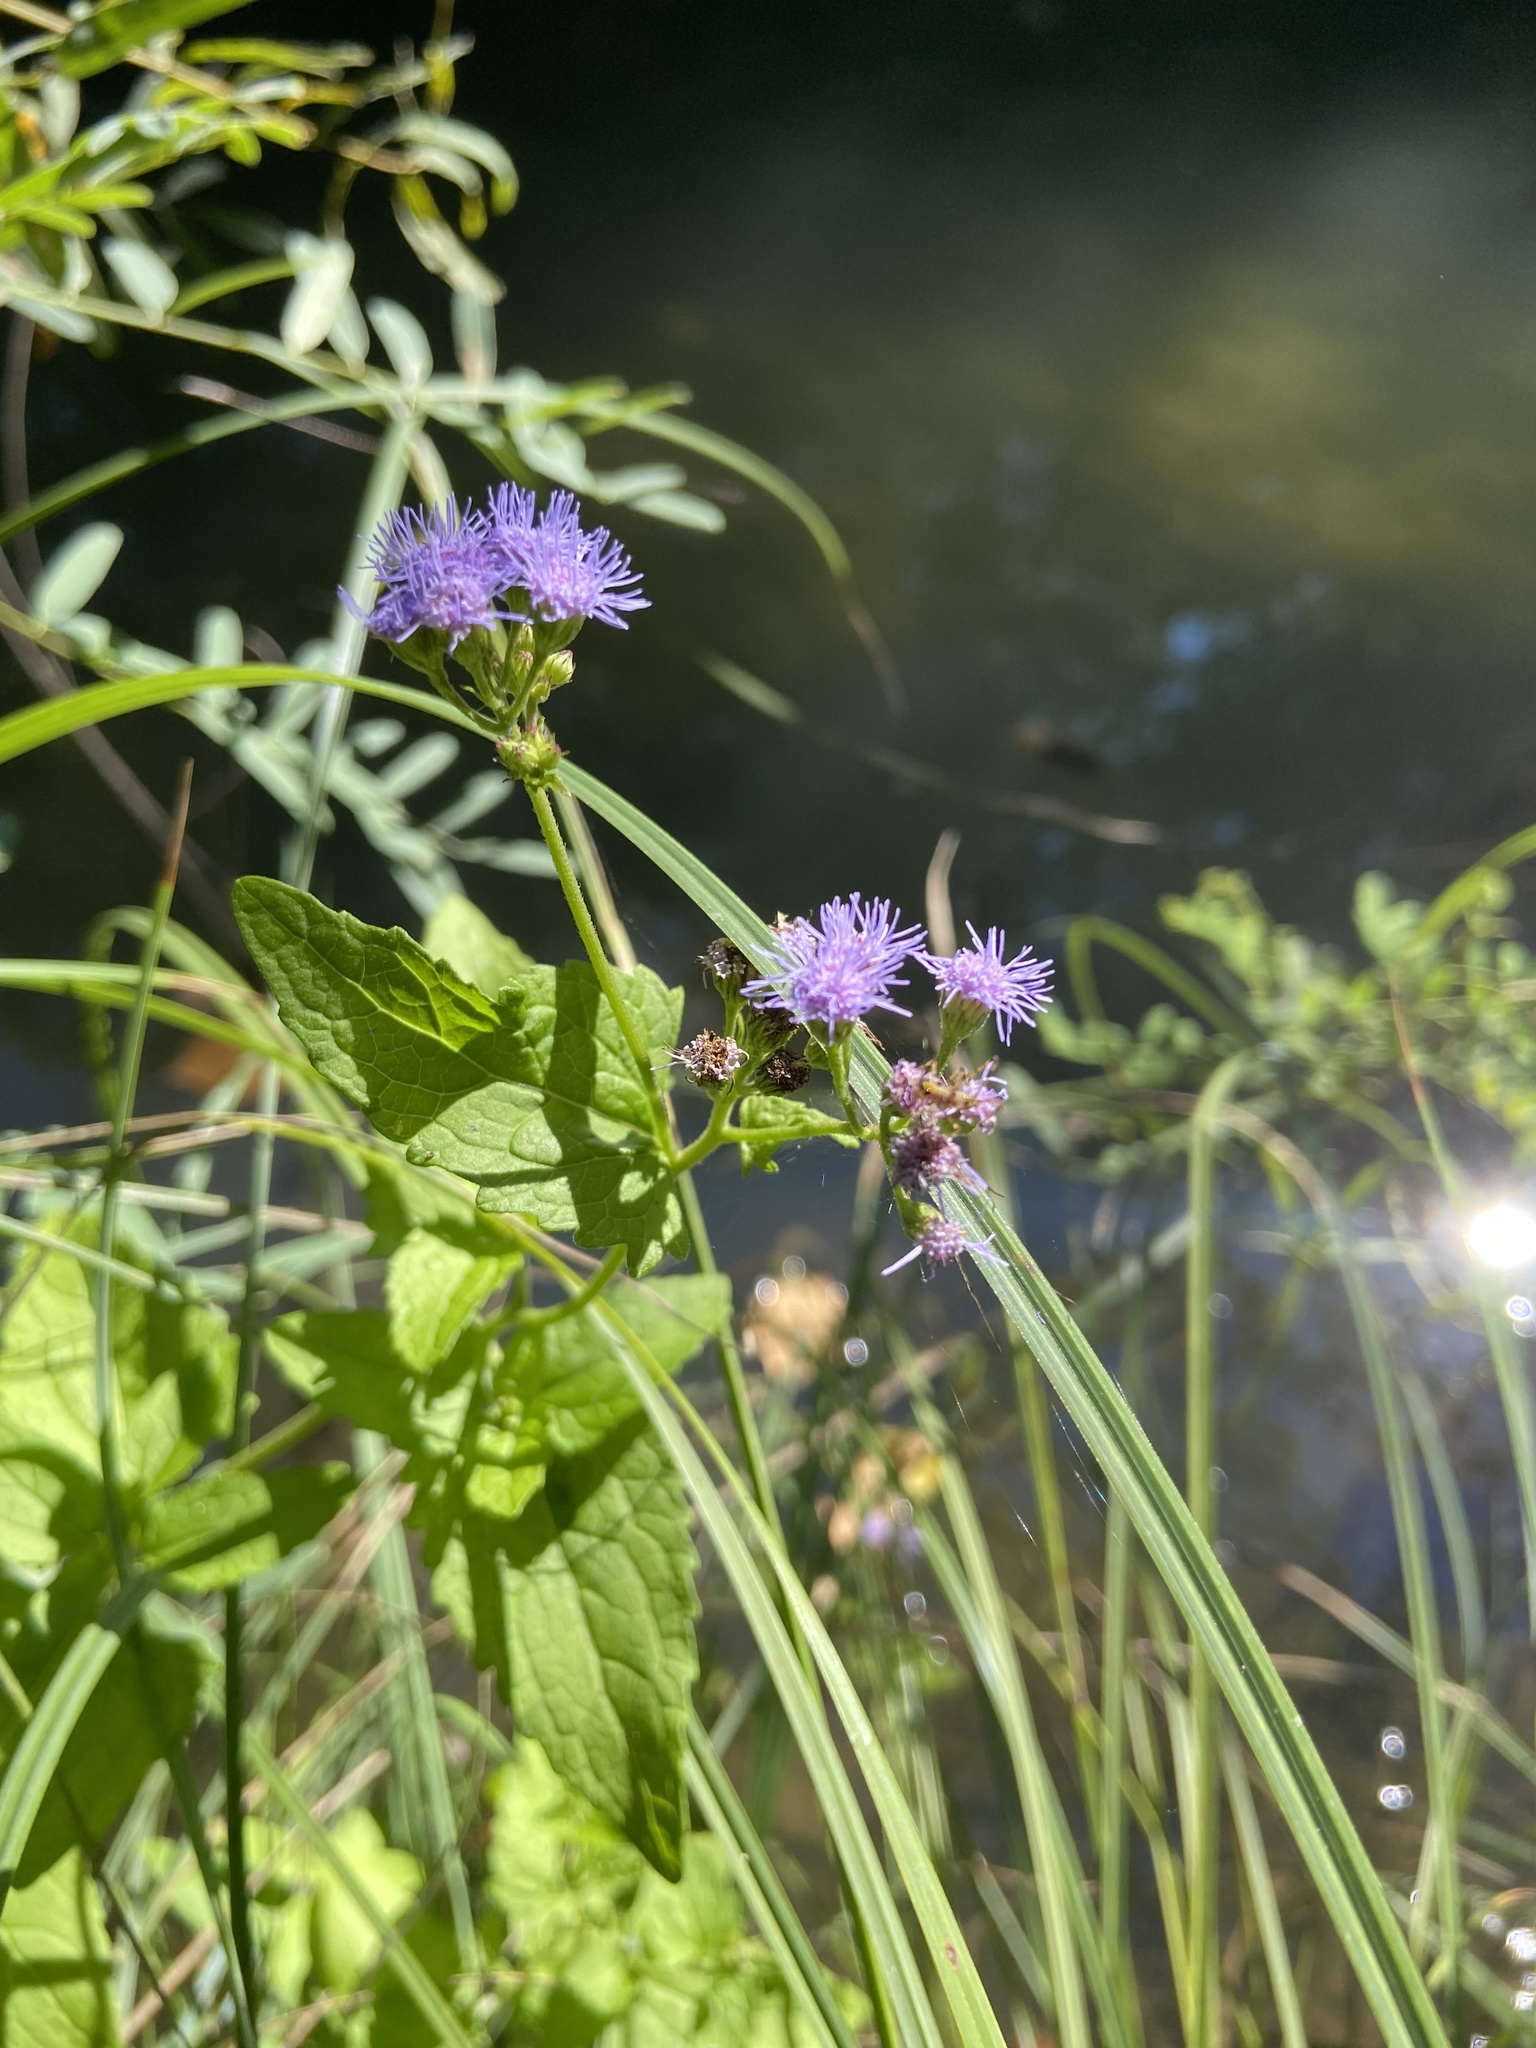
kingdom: Plantae
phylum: Tracheophyta
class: Magnoliopsida
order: Asterales
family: Asteraceae
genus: Conoclinium
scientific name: Conoclinium coelestinum
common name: Blue mistflower
